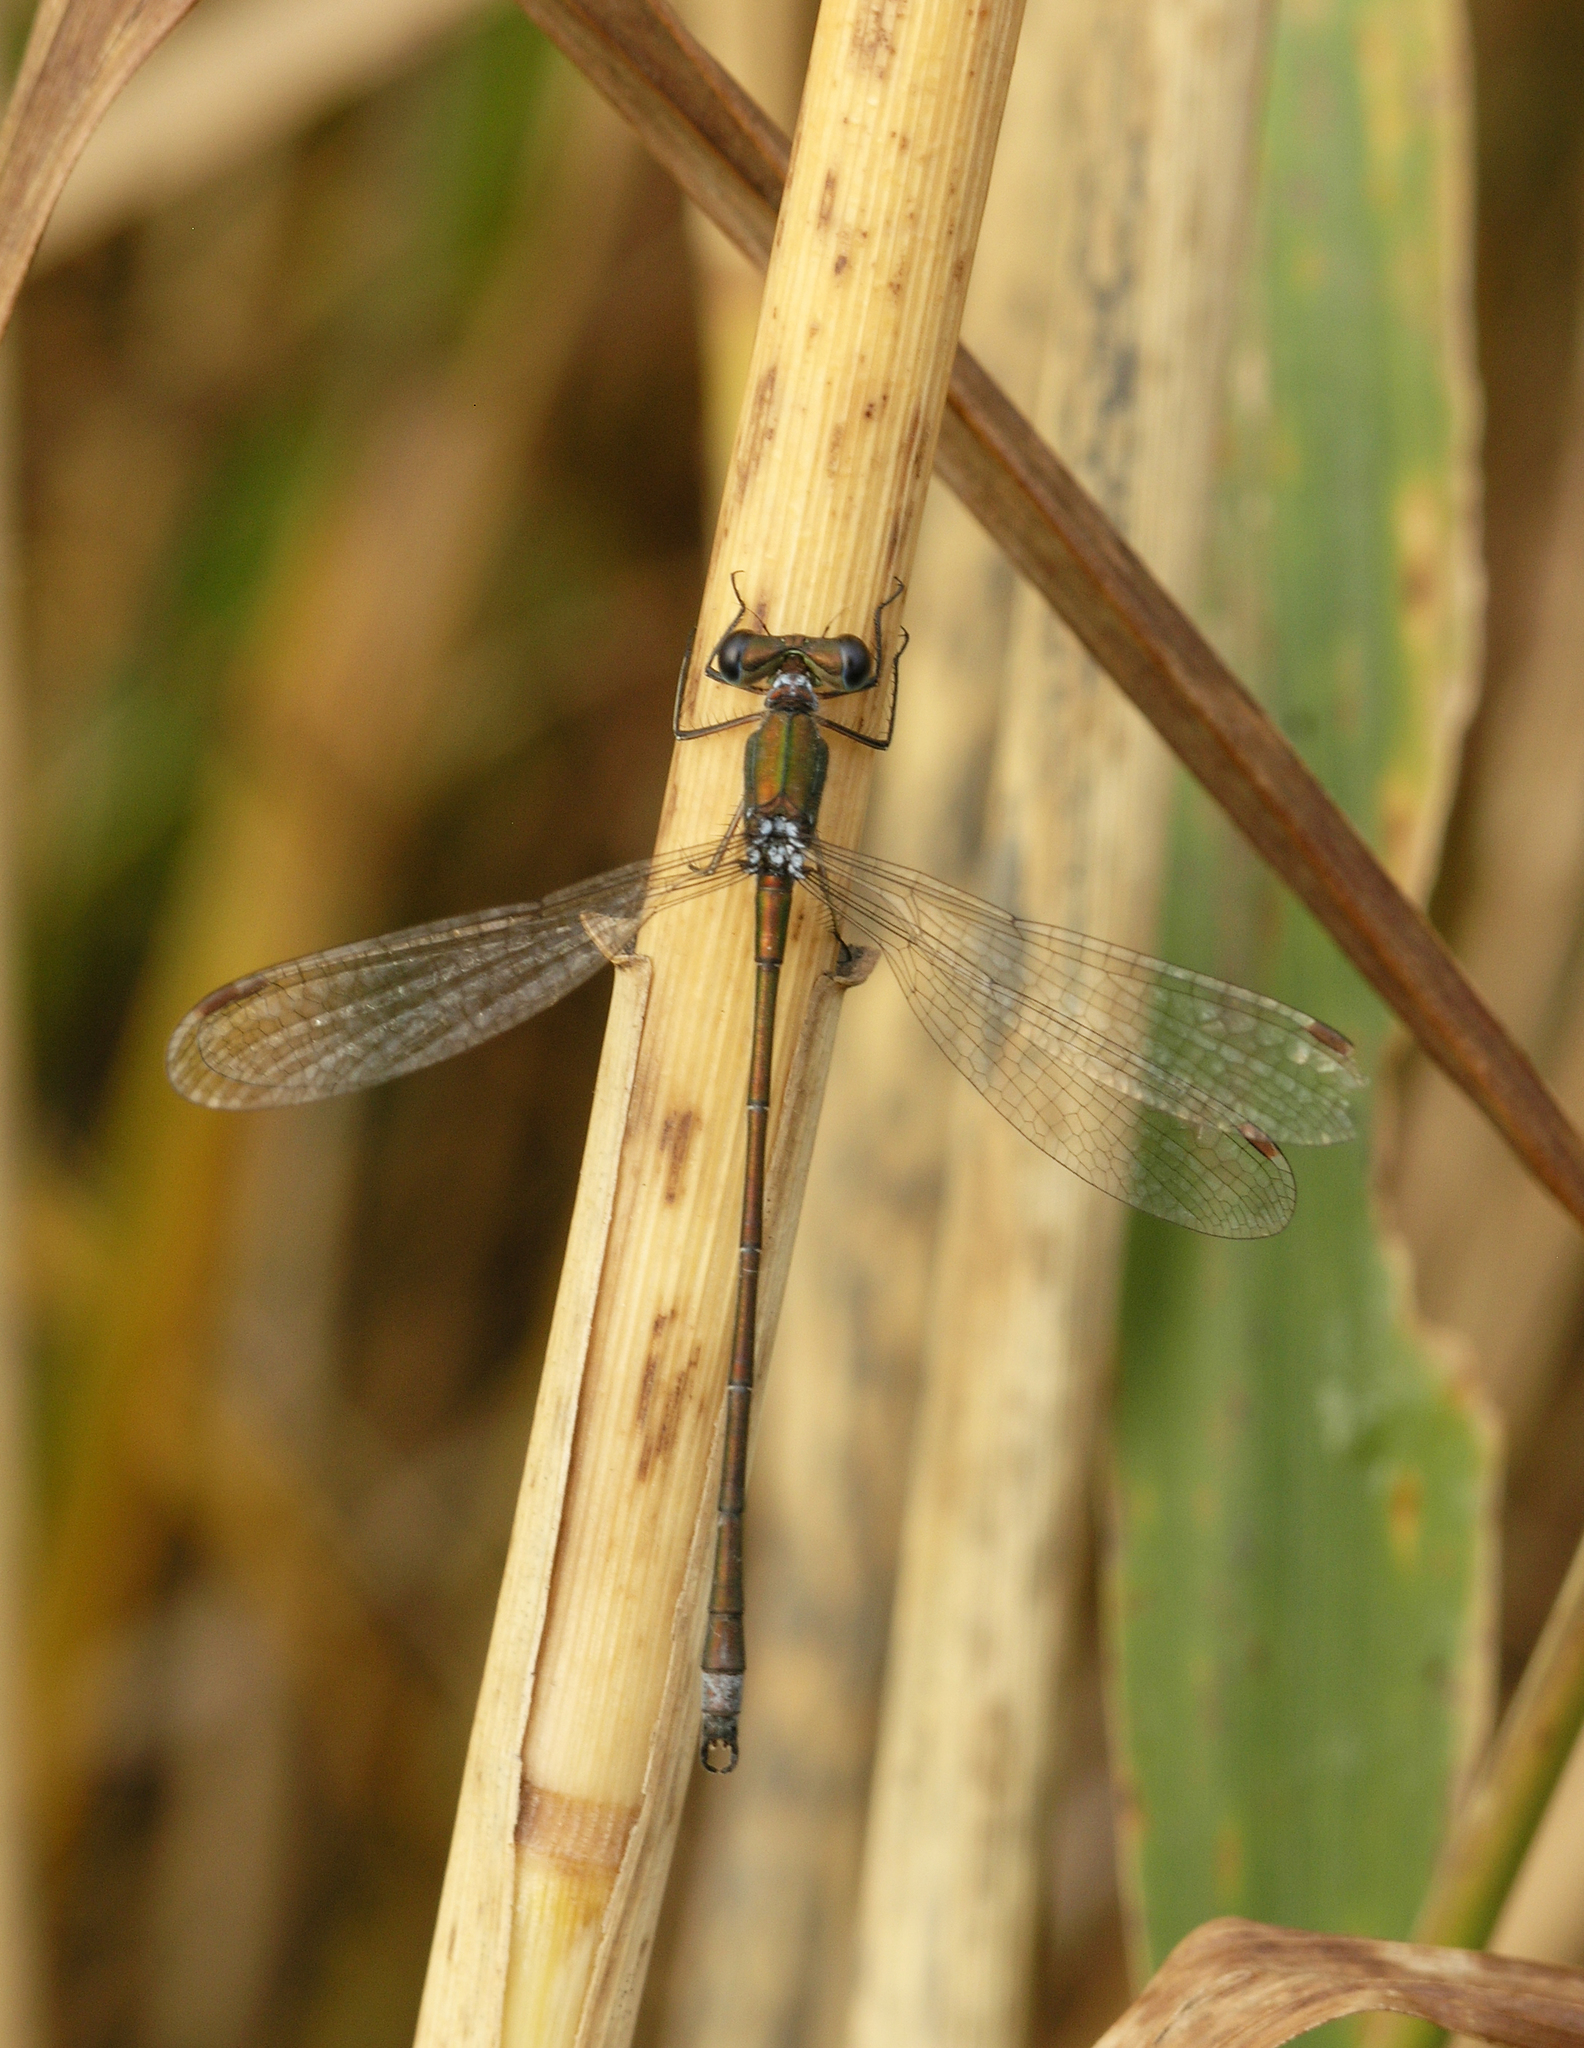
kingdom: Animalia
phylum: Arthropoda
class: Insecta
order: Odonata
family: Lestidae
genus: Lestes
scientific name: Lestes virens
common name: Small emerald spreadwing
